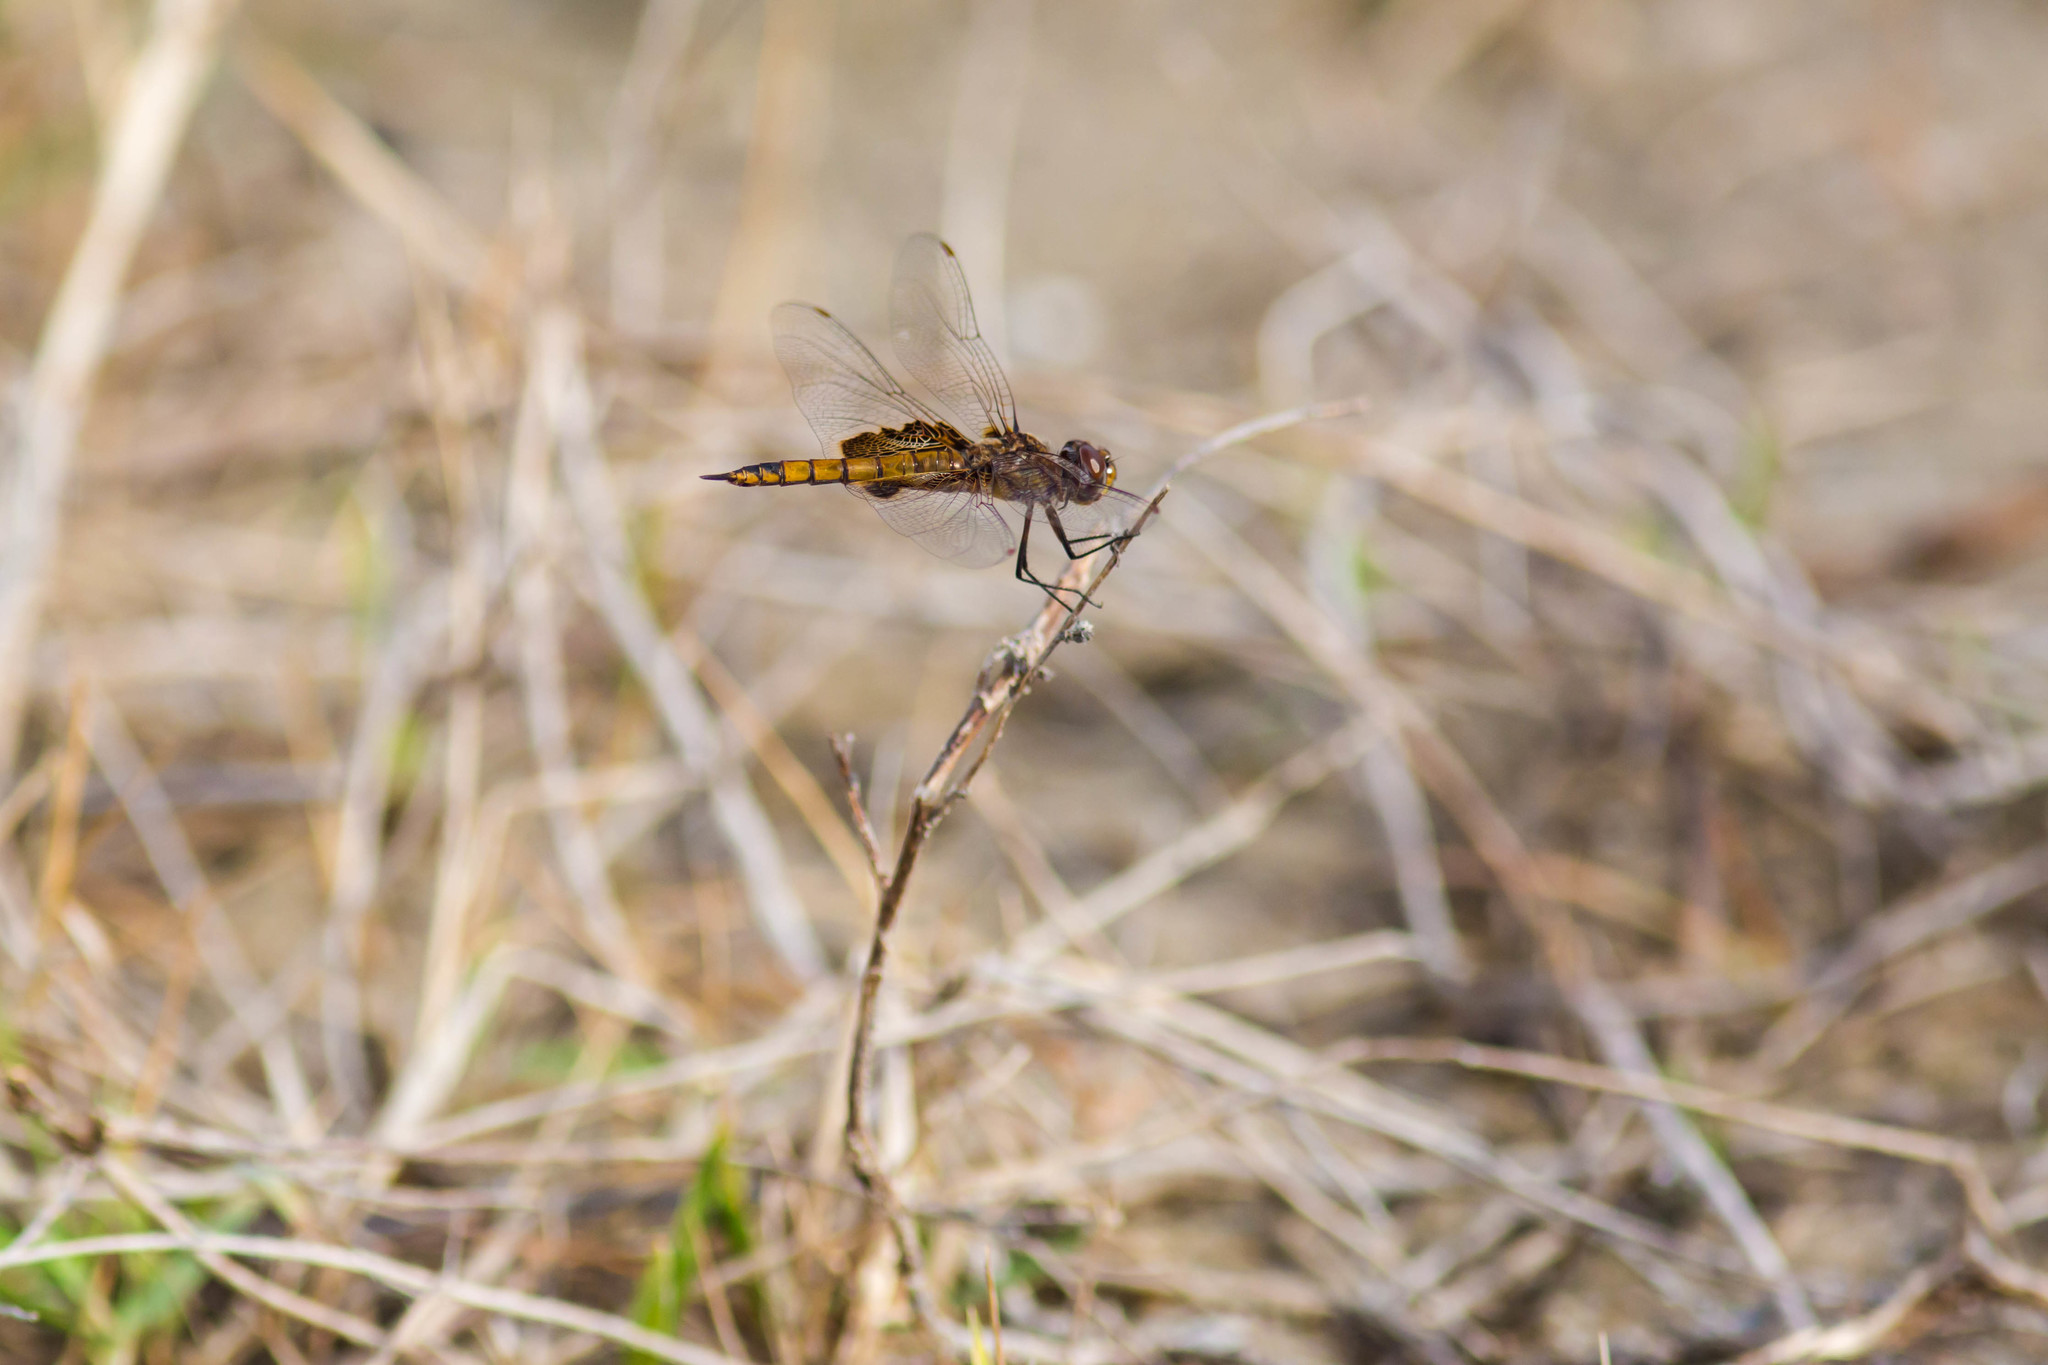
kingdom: Animalia
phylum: Arthropoda
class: Insecta
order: Odonata
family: Libellulidae
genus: Tramea
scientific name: Tramea onusta
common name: Red saddlebags
